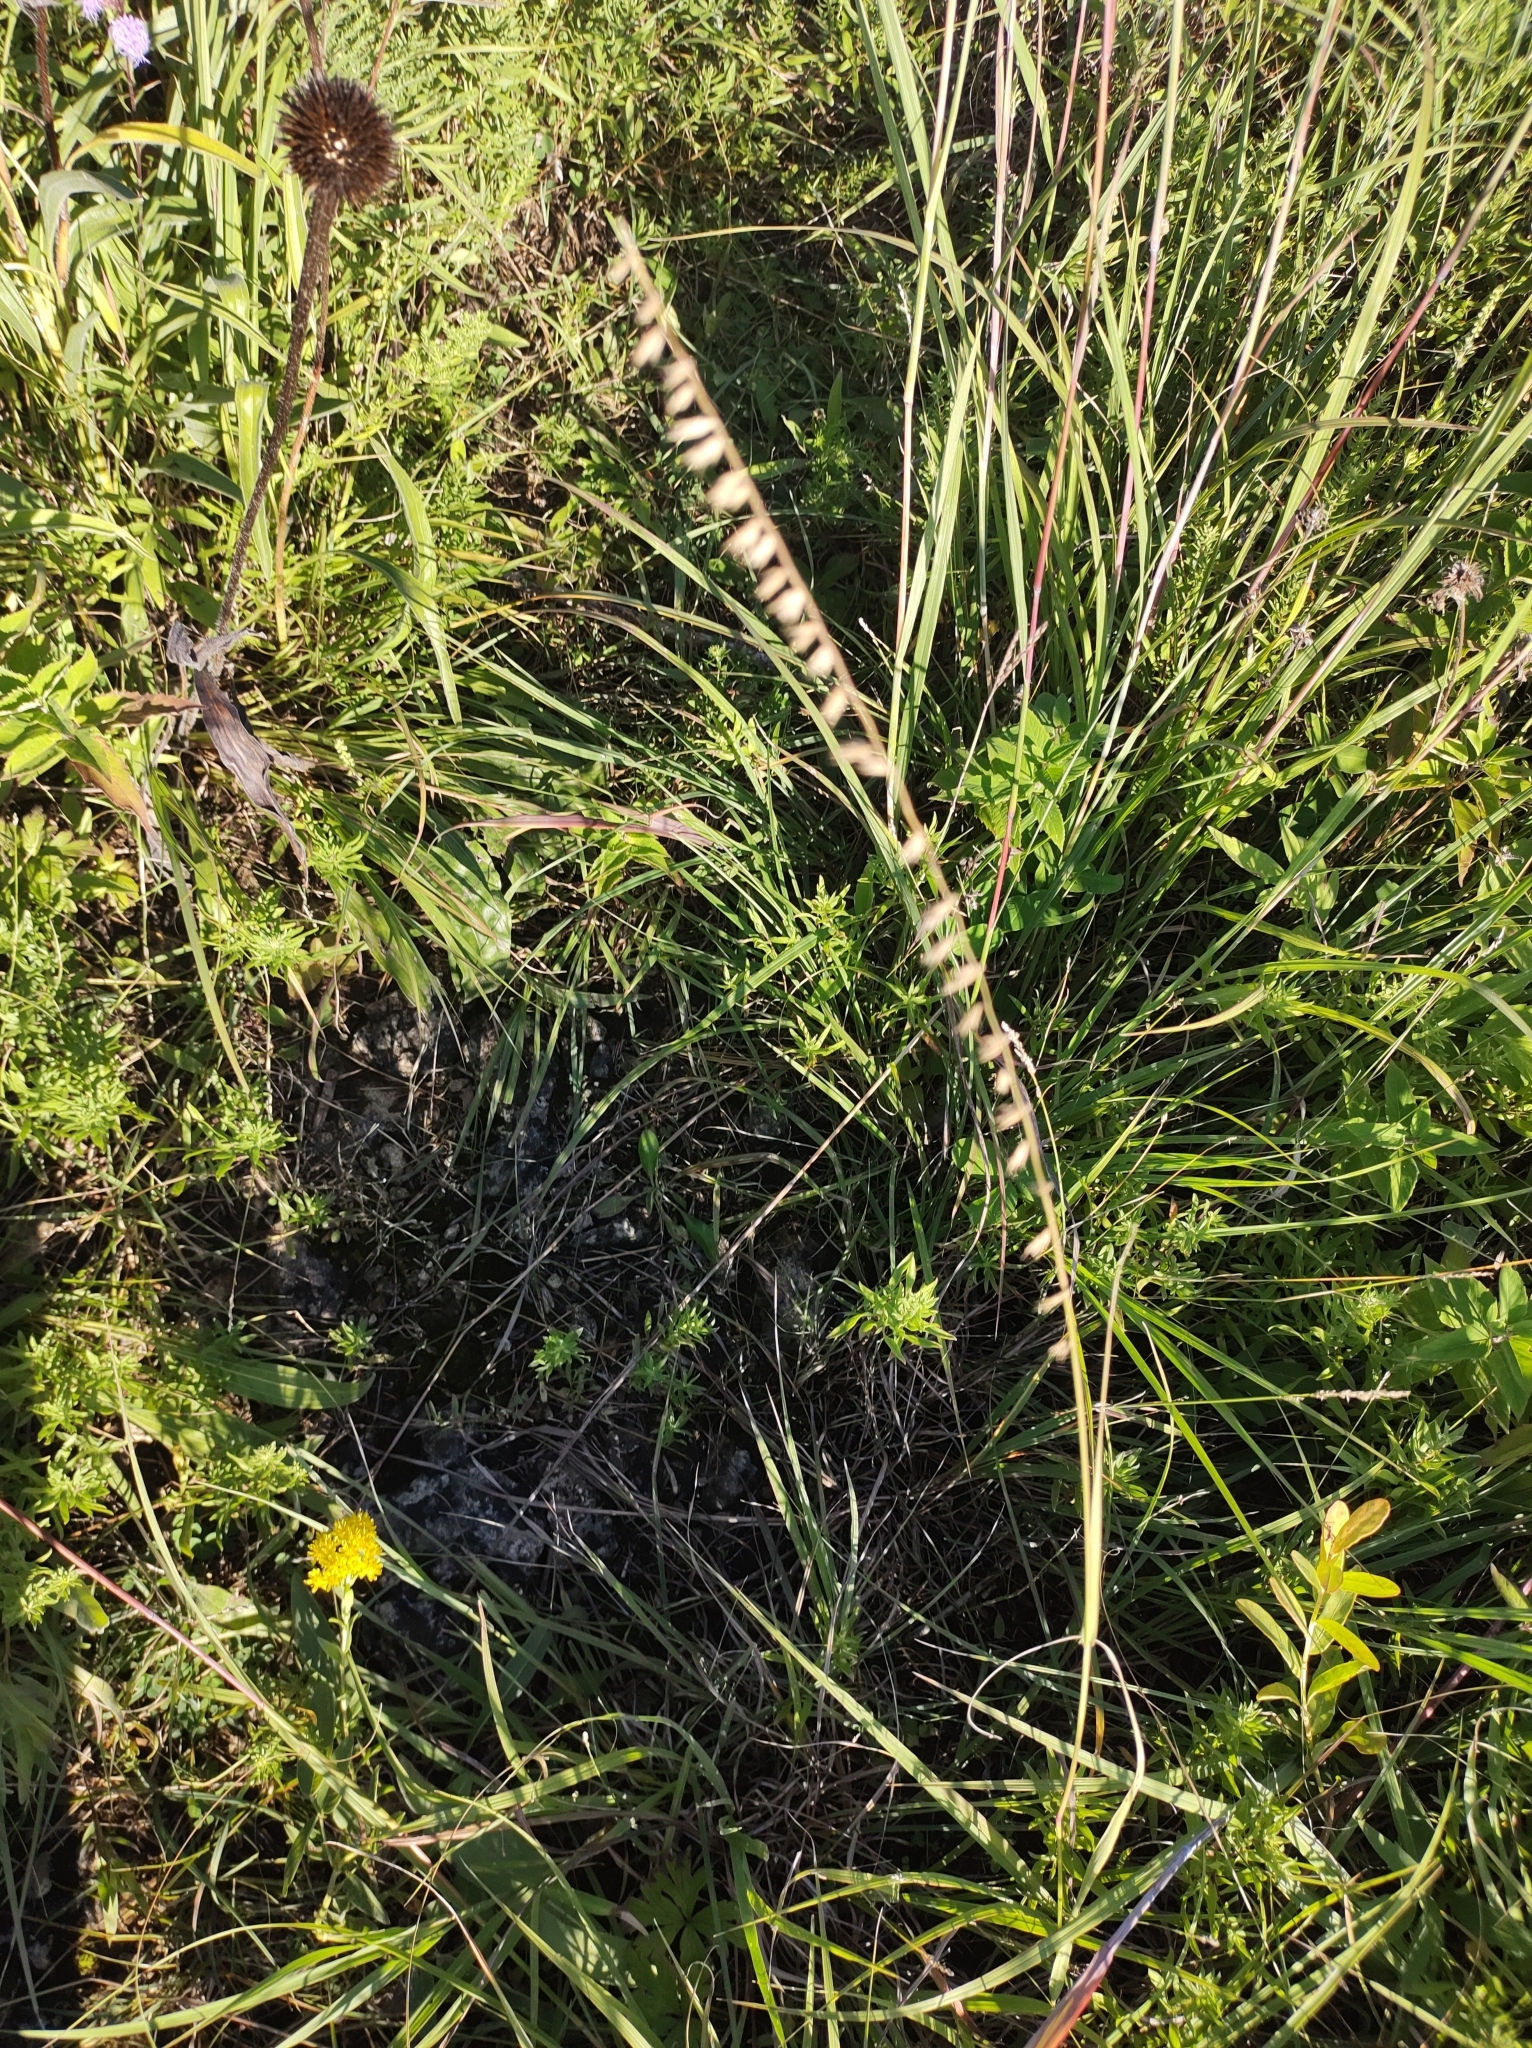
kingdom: Plantae
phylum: Tracheophyta
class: Liliopsida
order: Poales
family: Poaceae
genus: Bouteloua
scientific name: Bouteloua curtipendula
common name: Side-oats grama
